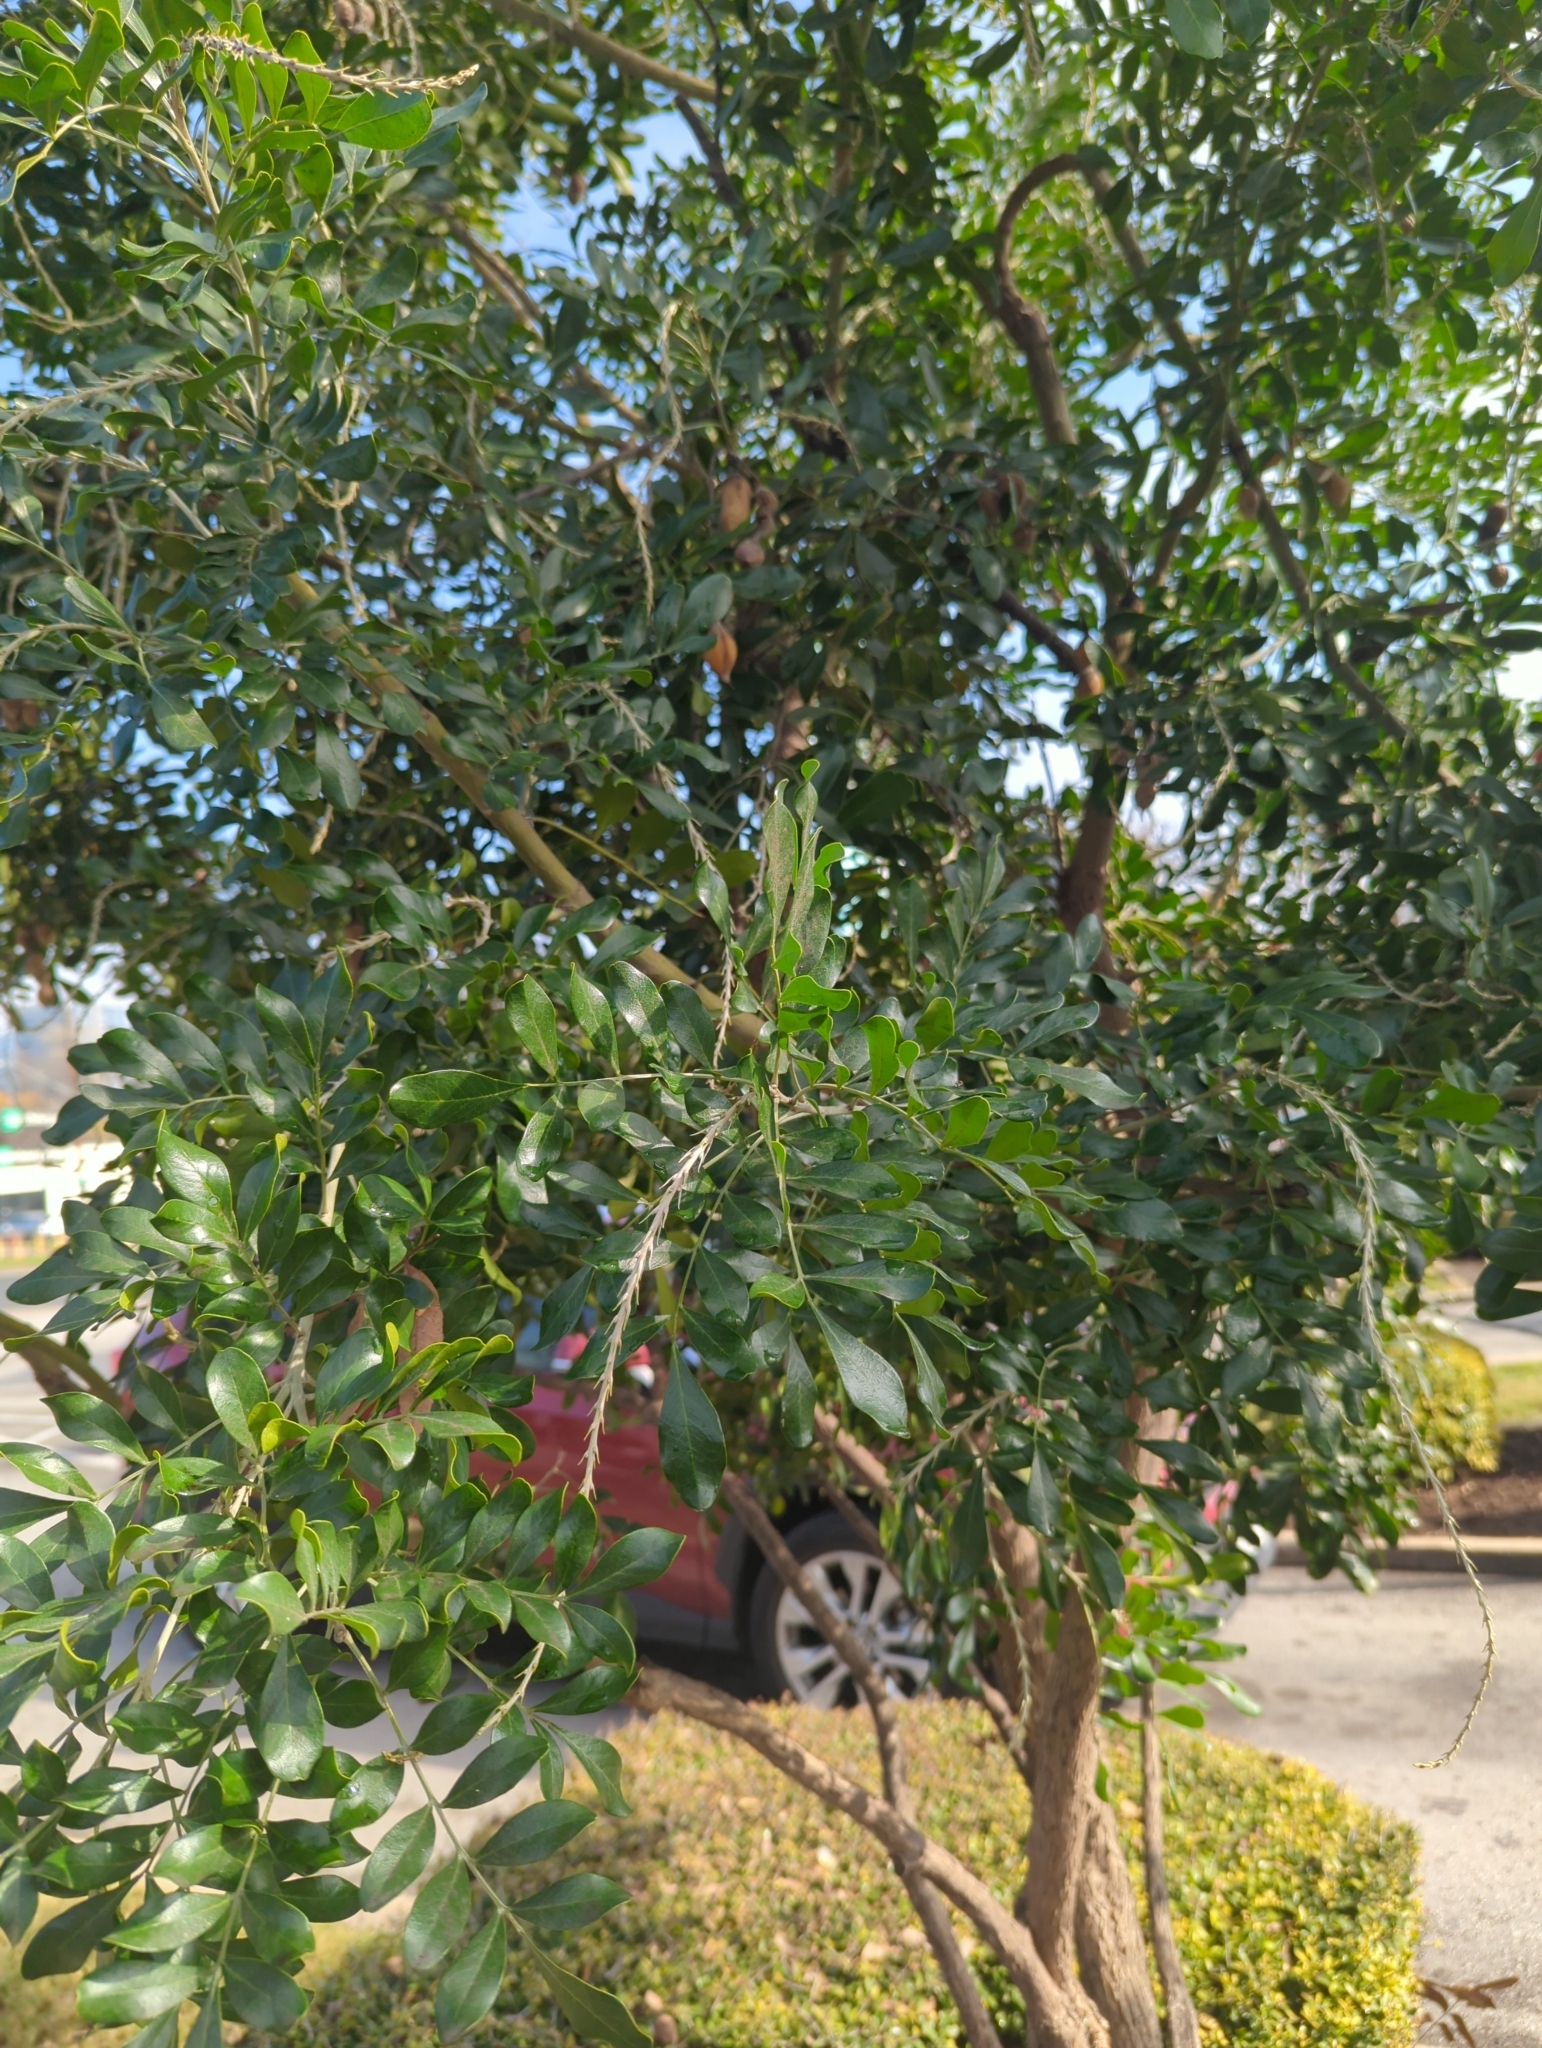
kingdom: Plantae
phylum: Tracheophyta
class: Magnoliopsida
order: Fabales
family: Fabaceae
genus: Dermatophyllum
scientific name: Dermatophyllum secundiflorum
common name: Texas-mountain-laurel
